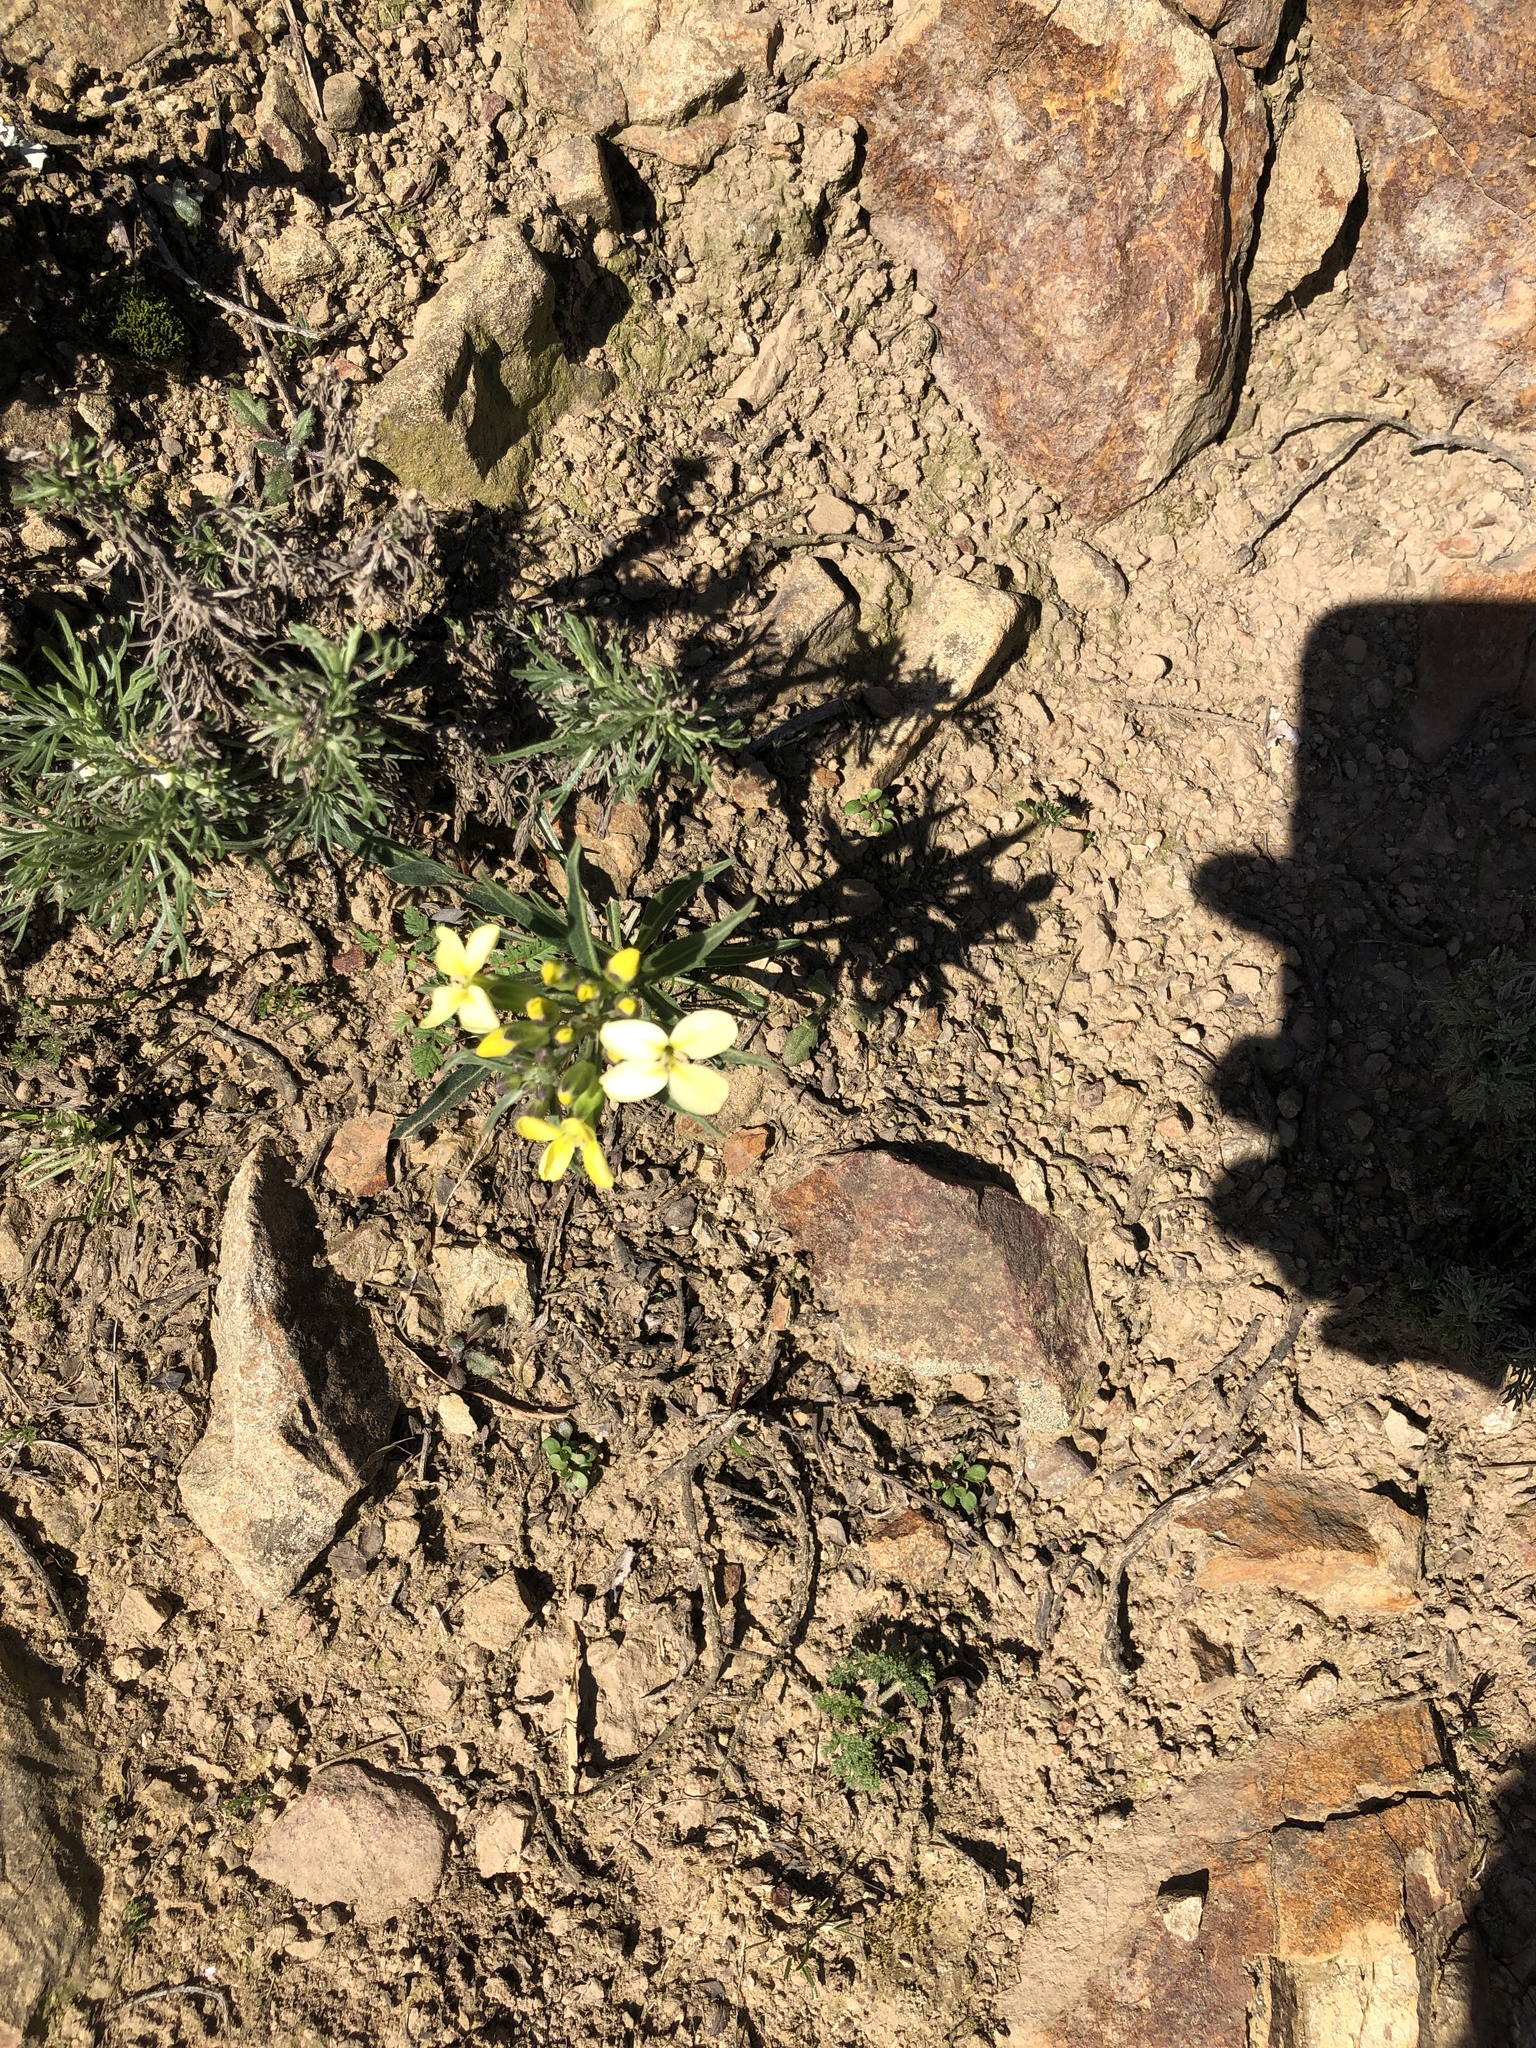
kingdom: Plantae
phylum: Tracheophyta
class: Magnoliopsida
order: Brassicales
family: Brassicaceae
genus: Erysimum
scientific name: Erysimum franciscanum
